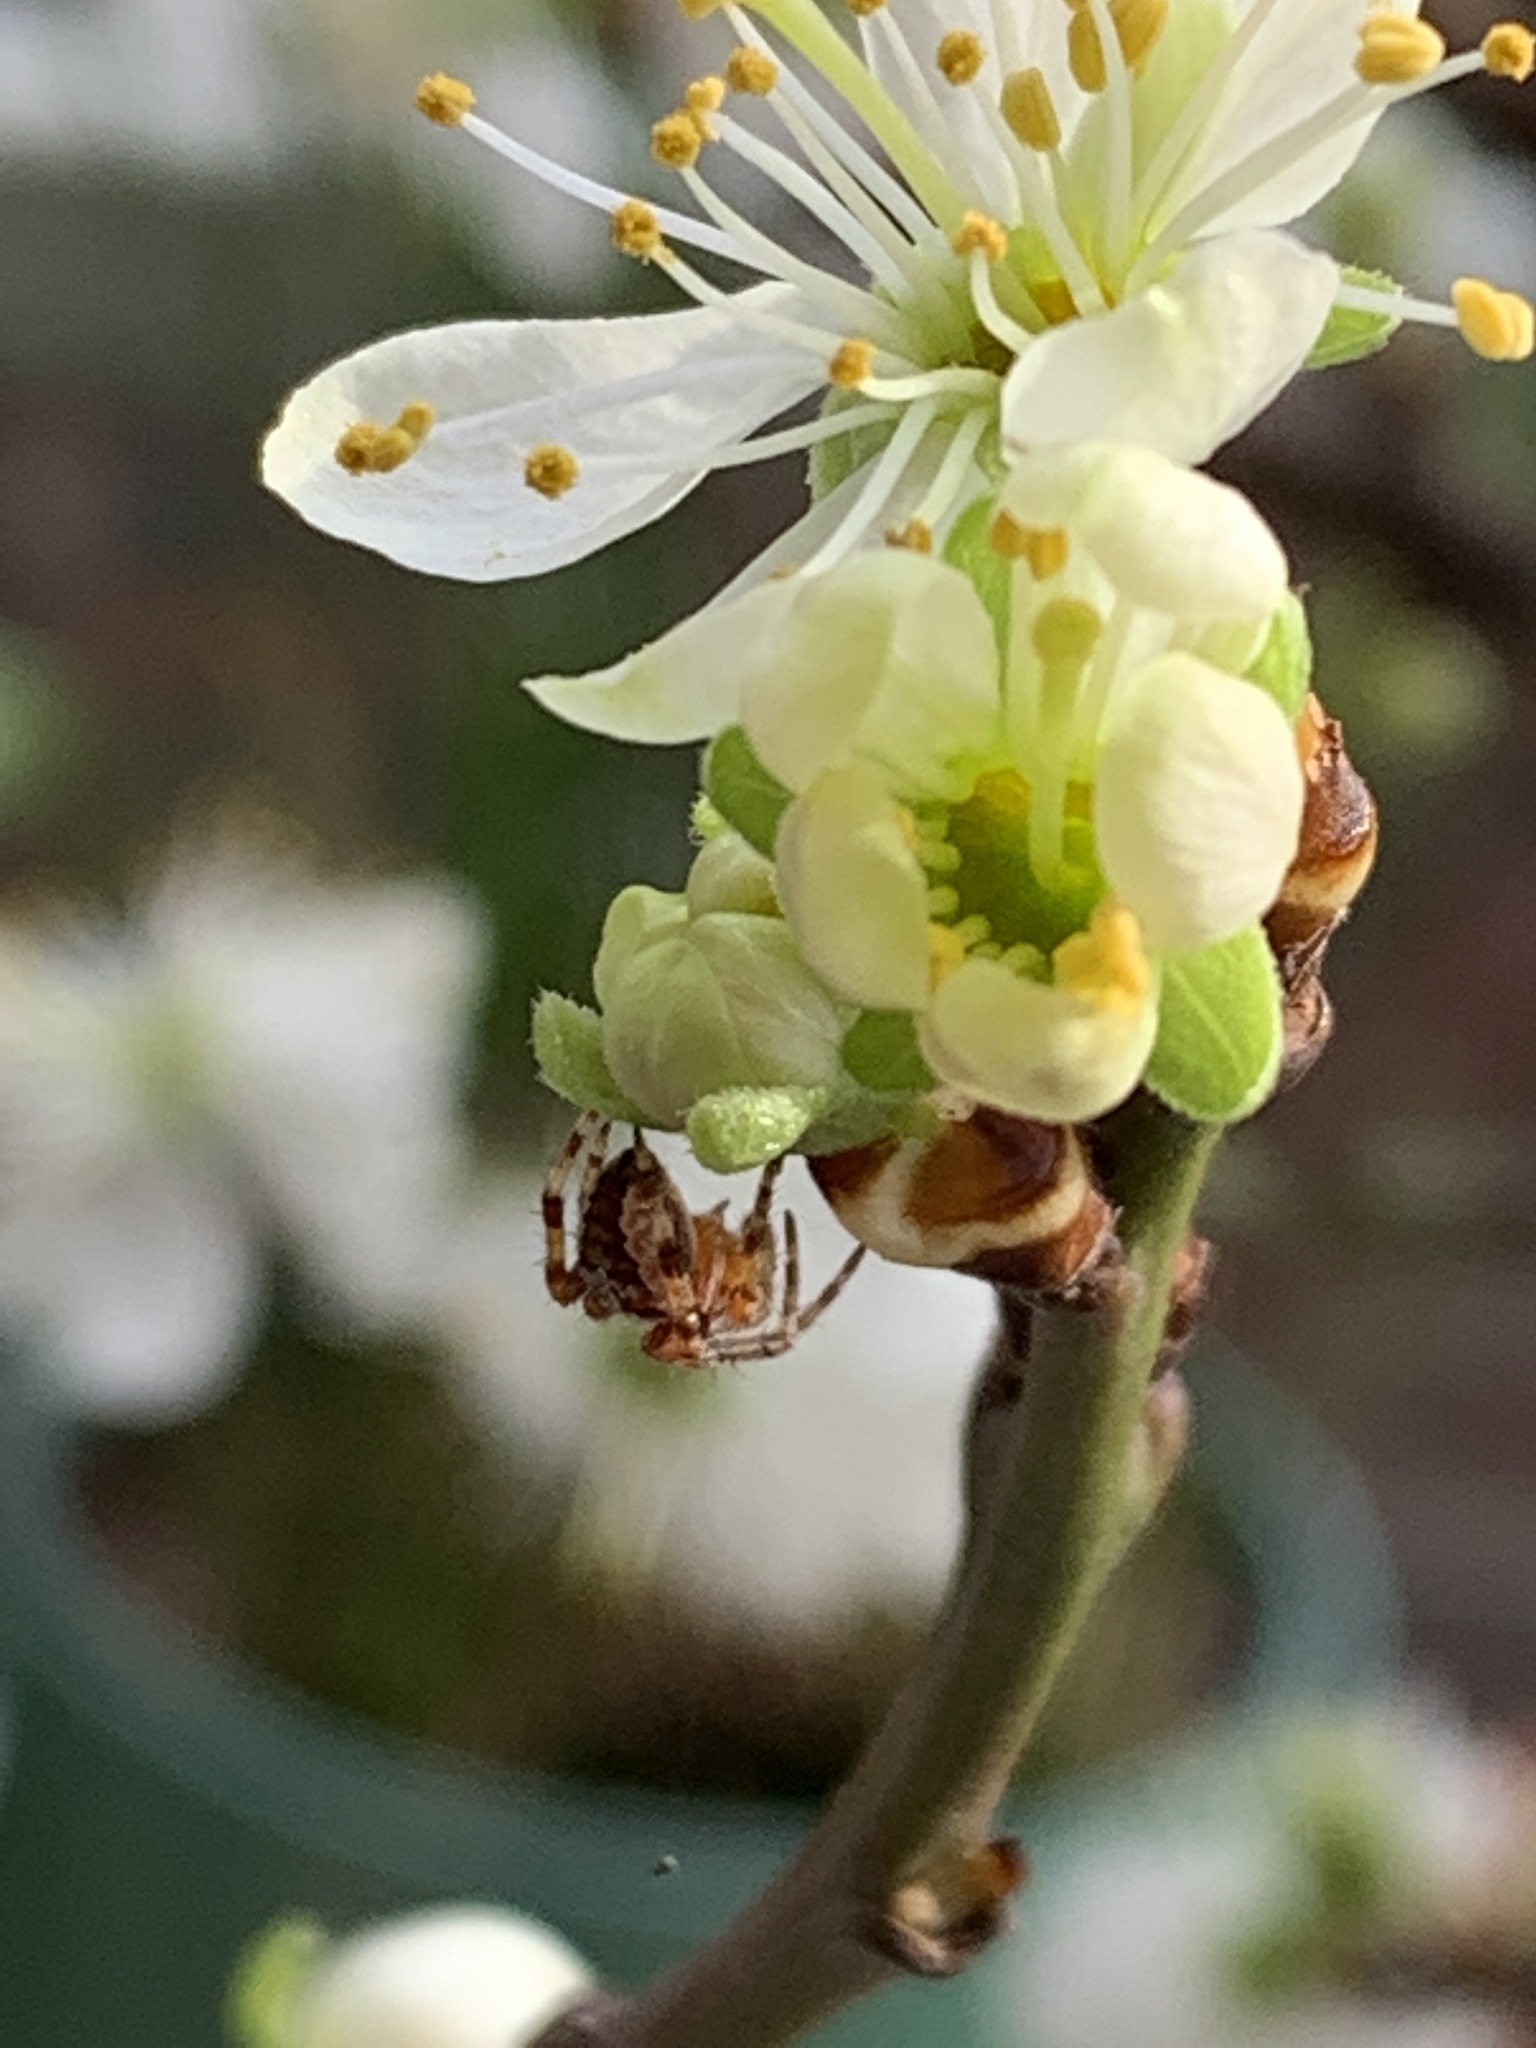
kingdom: Animalia
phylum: Arthropoda
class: Arachnida
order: Araneae
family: Araneidae
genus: Araneus
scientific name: Araneus diadematus
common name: Cross orbweaver
